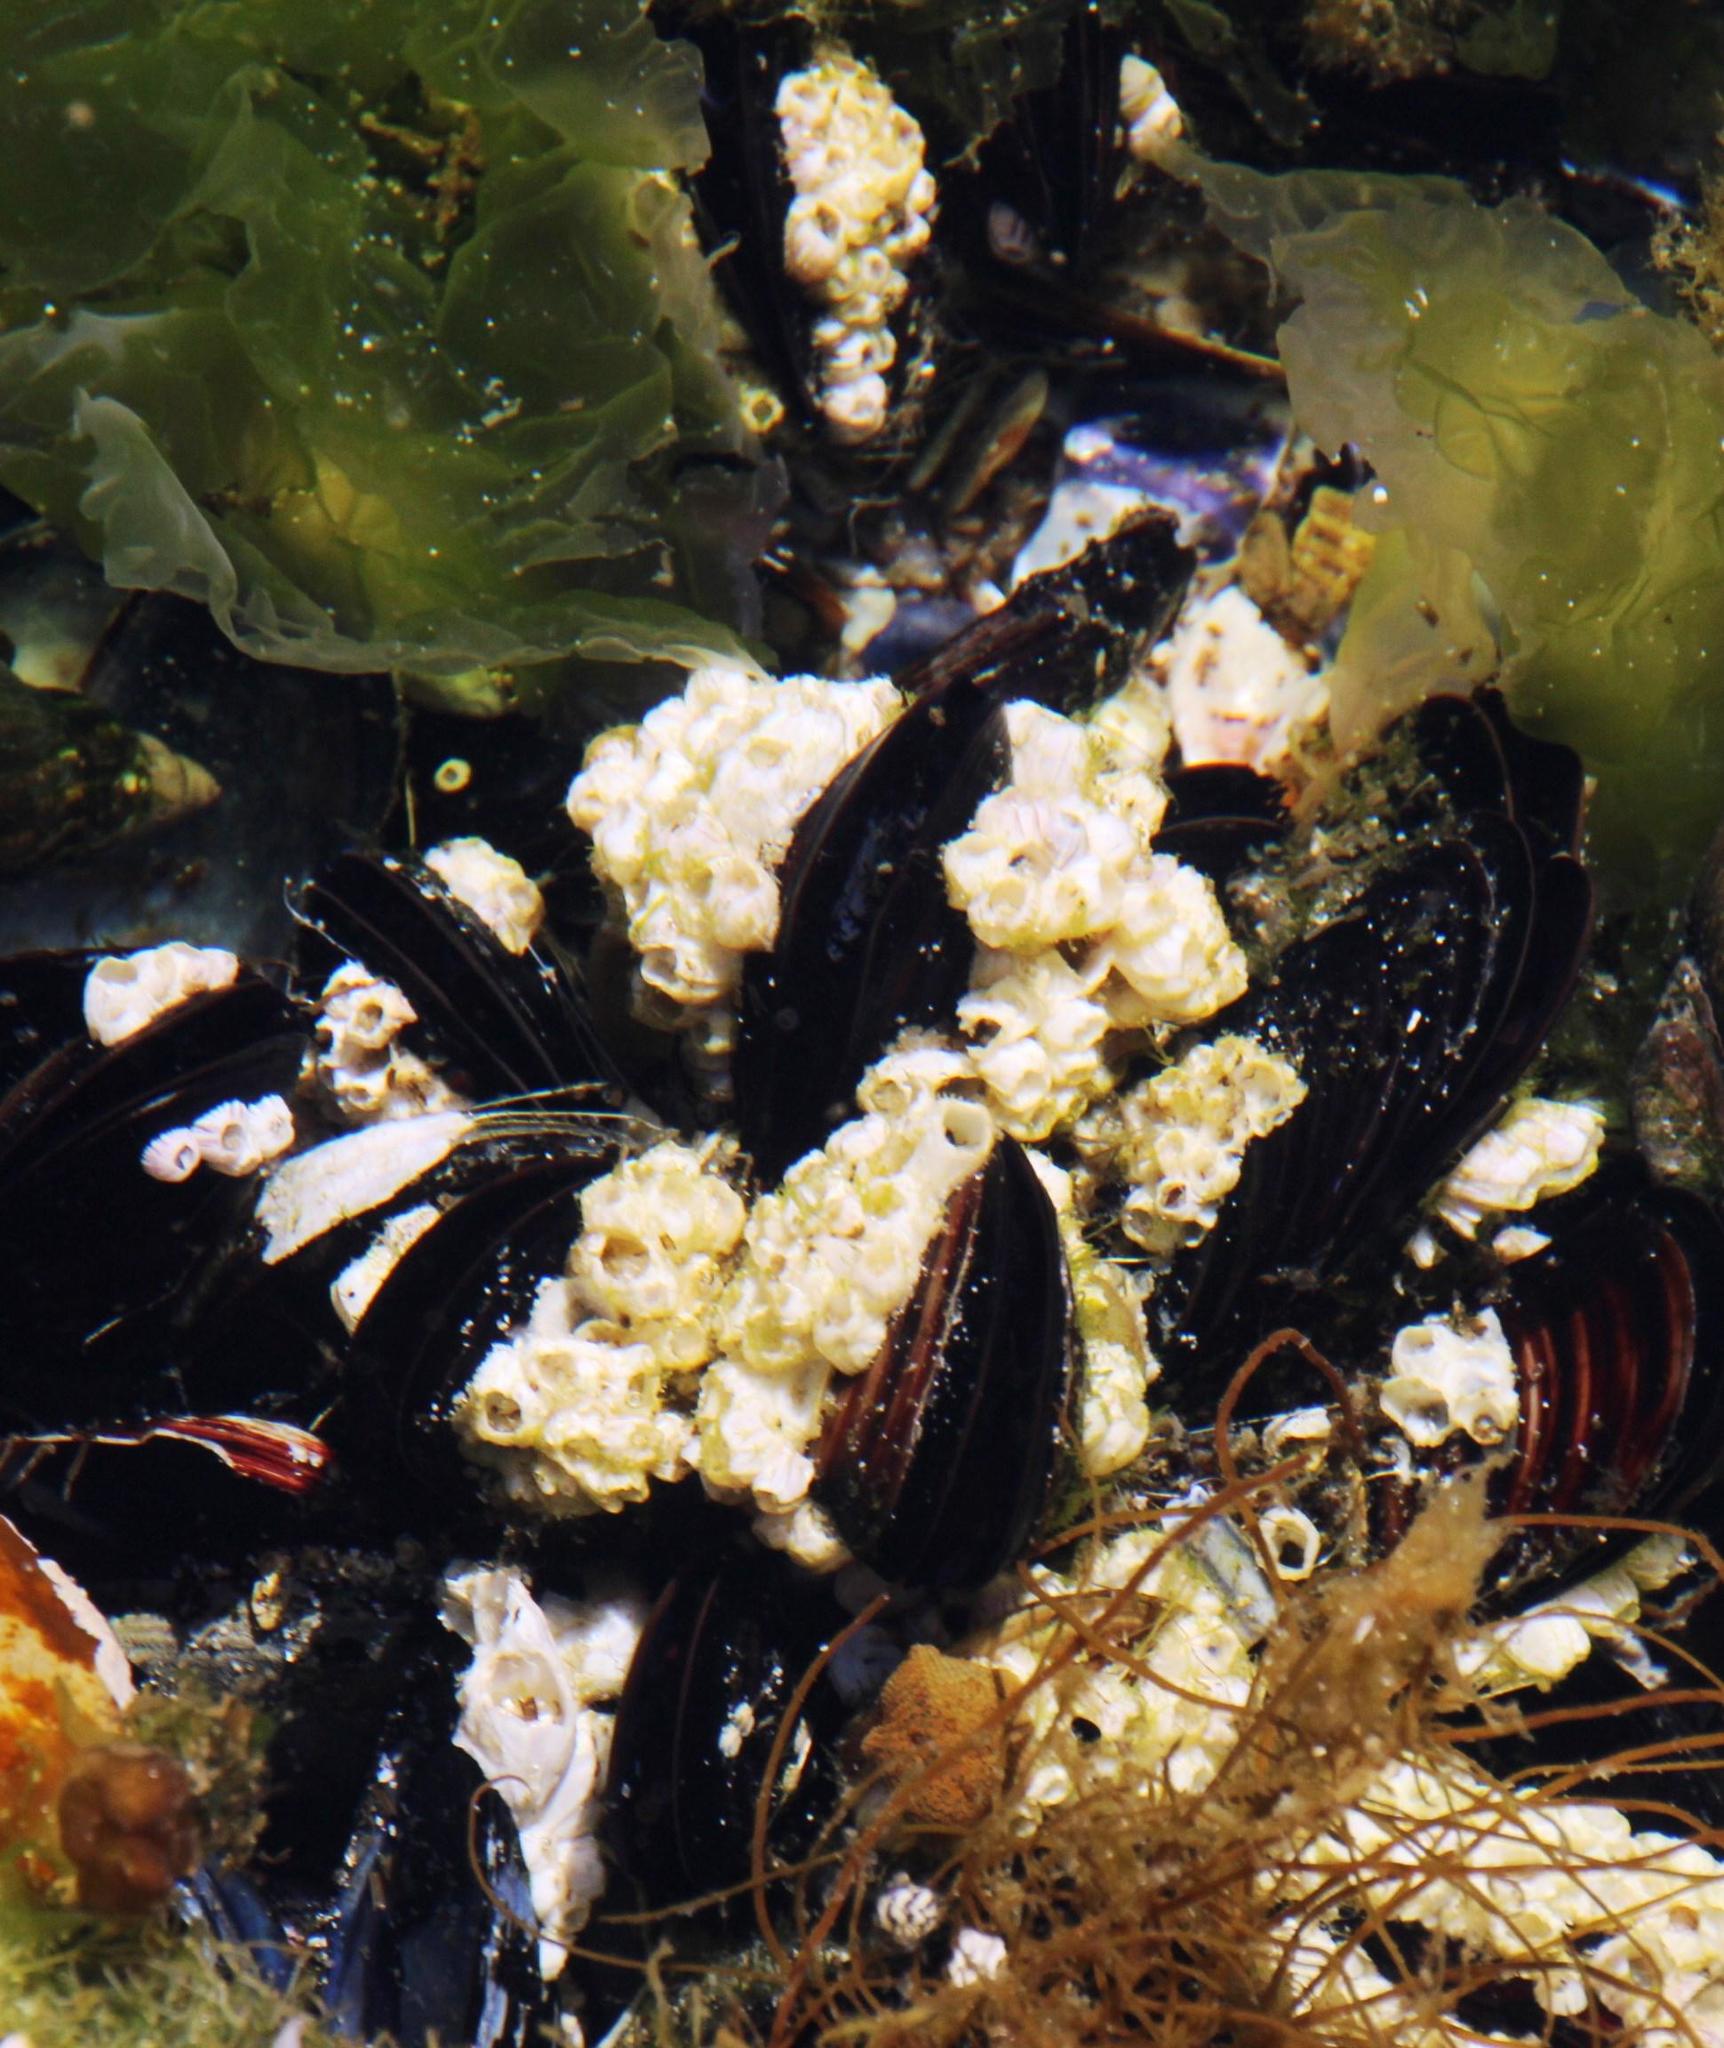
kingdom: Animalia
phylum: Arthropoda
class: Maxillopoda
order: Sessilia
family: Balanidae
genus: Notomegabalanus
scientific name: Notomegabalanus algicola
